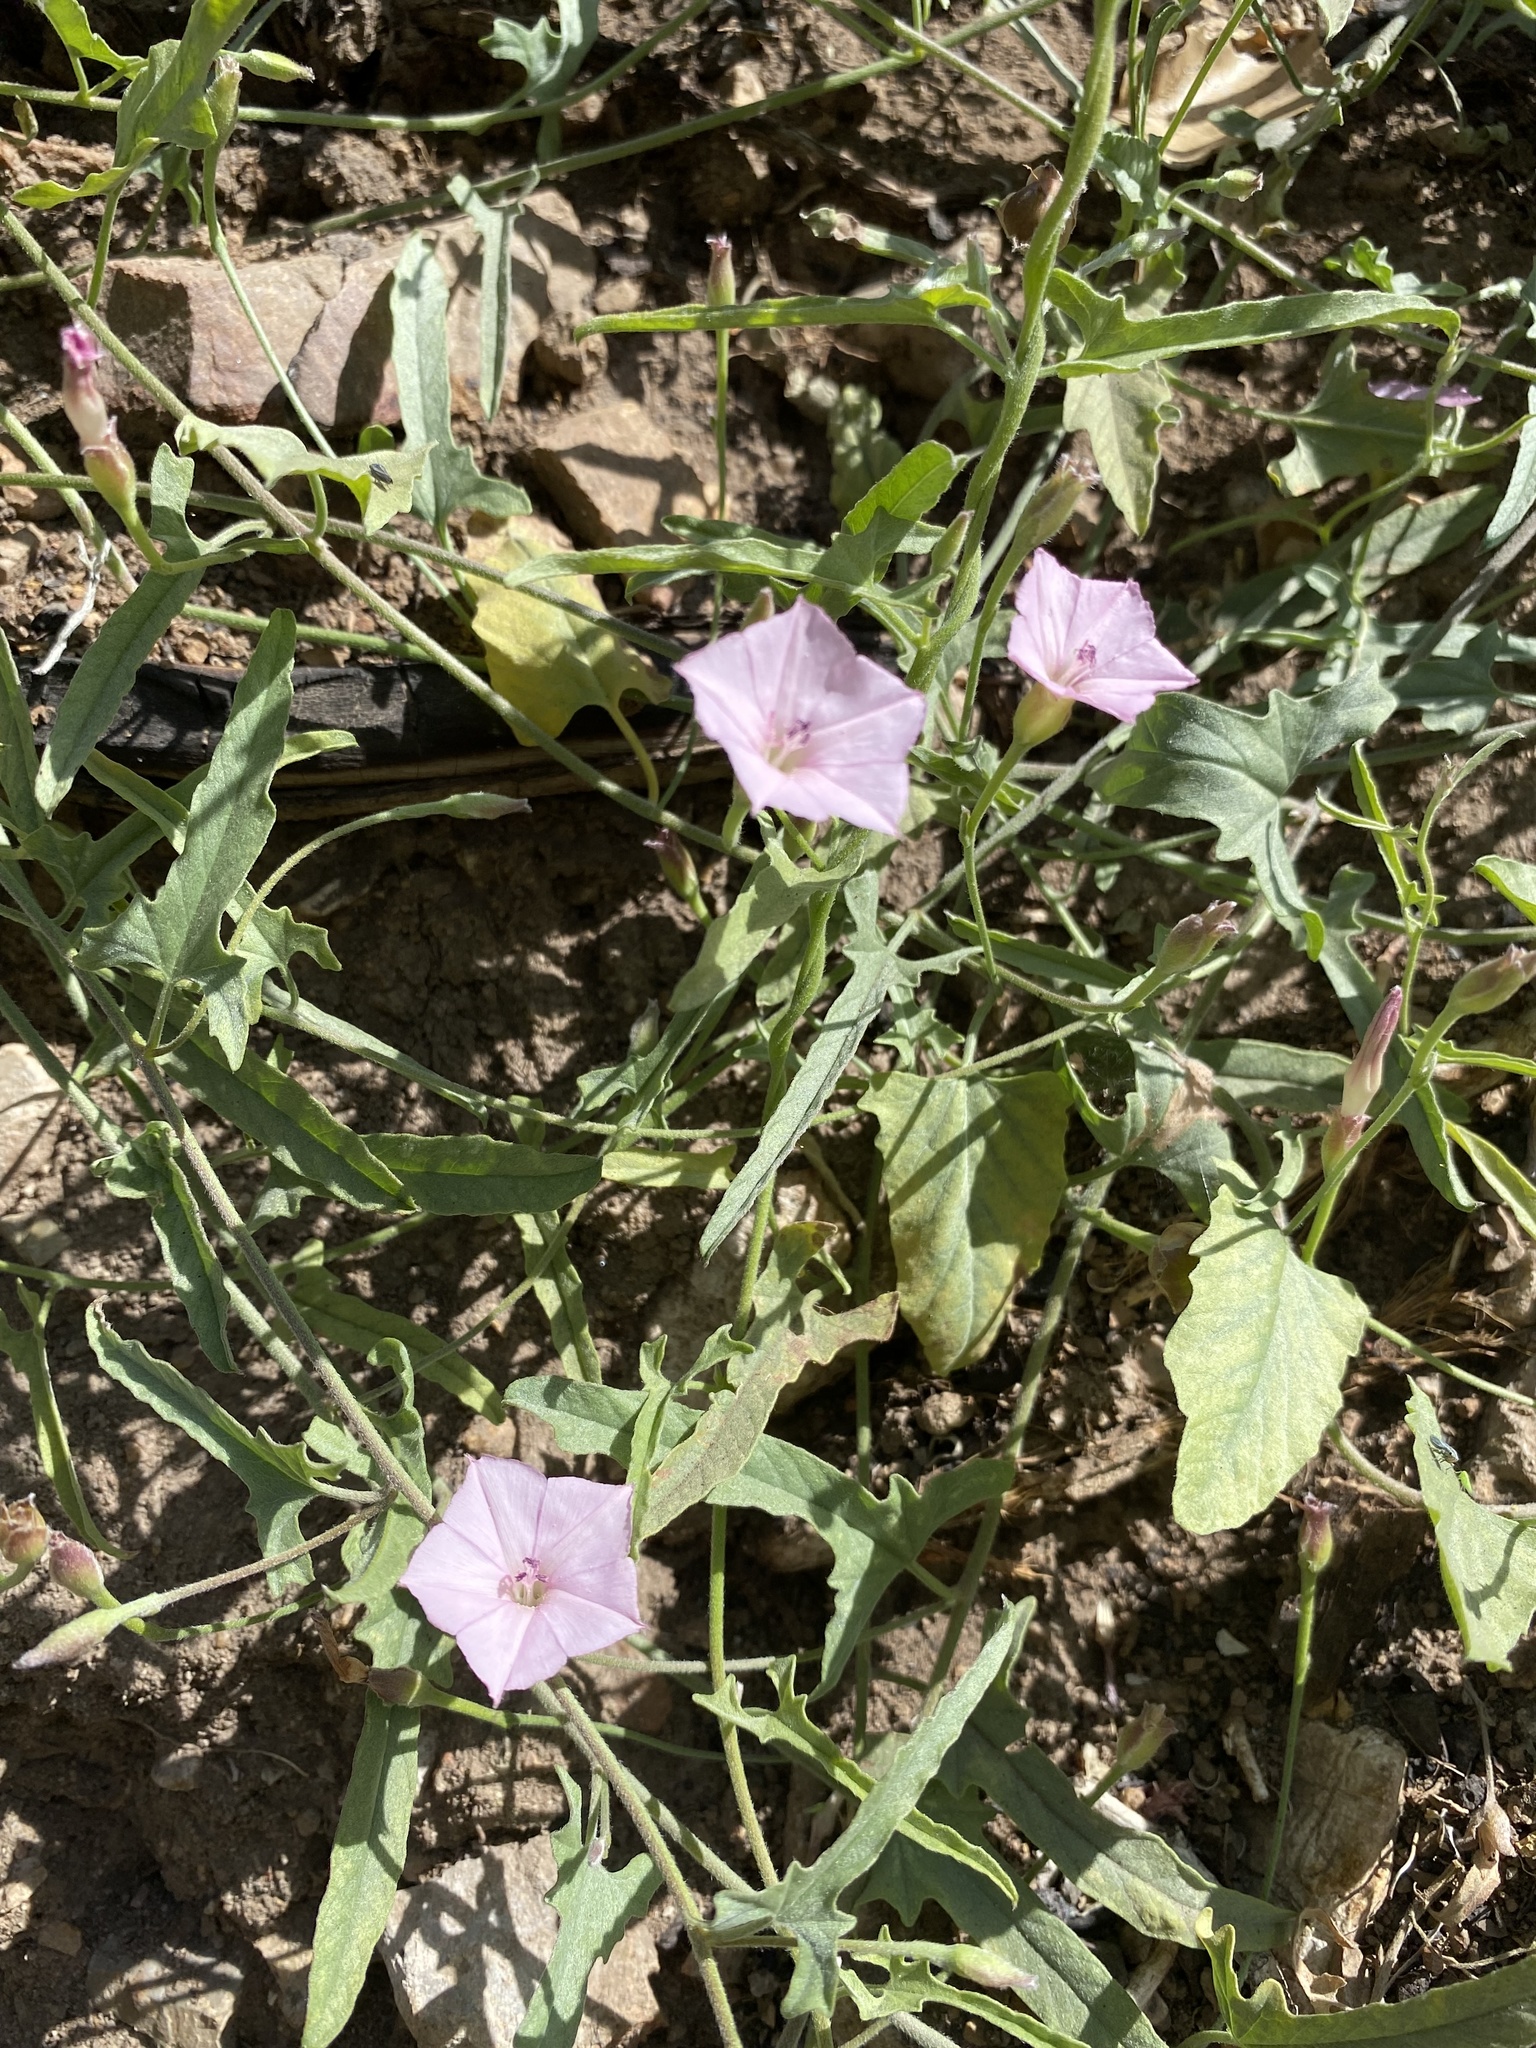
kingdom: Plantae
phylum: Tracheophyta
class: Magnoliopsida
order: Solanales
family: Convolvulaceae
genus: Convolvulus
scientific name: Convolvulus equitans
